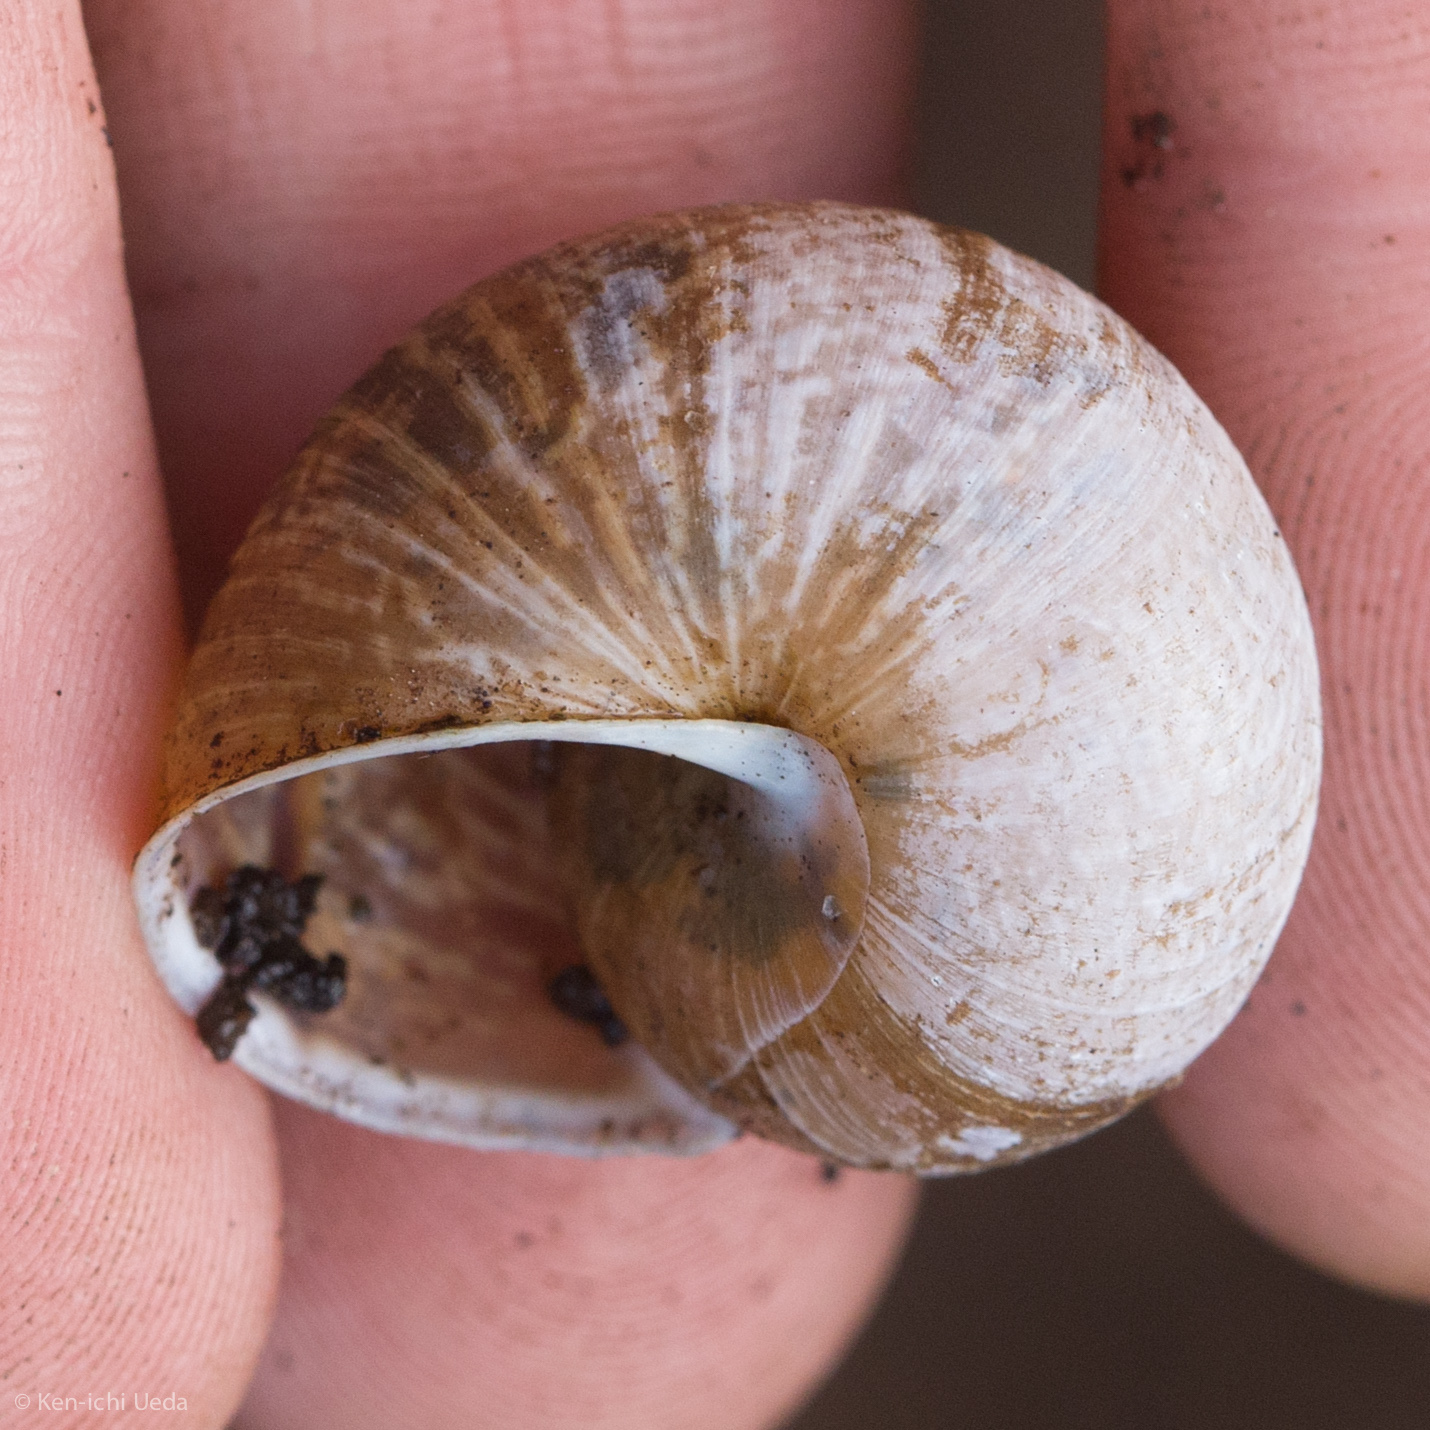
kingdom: Animalia
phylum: Mollusca
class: Gastropoda
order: Stylommatophora
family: Xanthonychidae
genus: Helminthoglypta
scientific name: Helminthoglypta nickliniana
